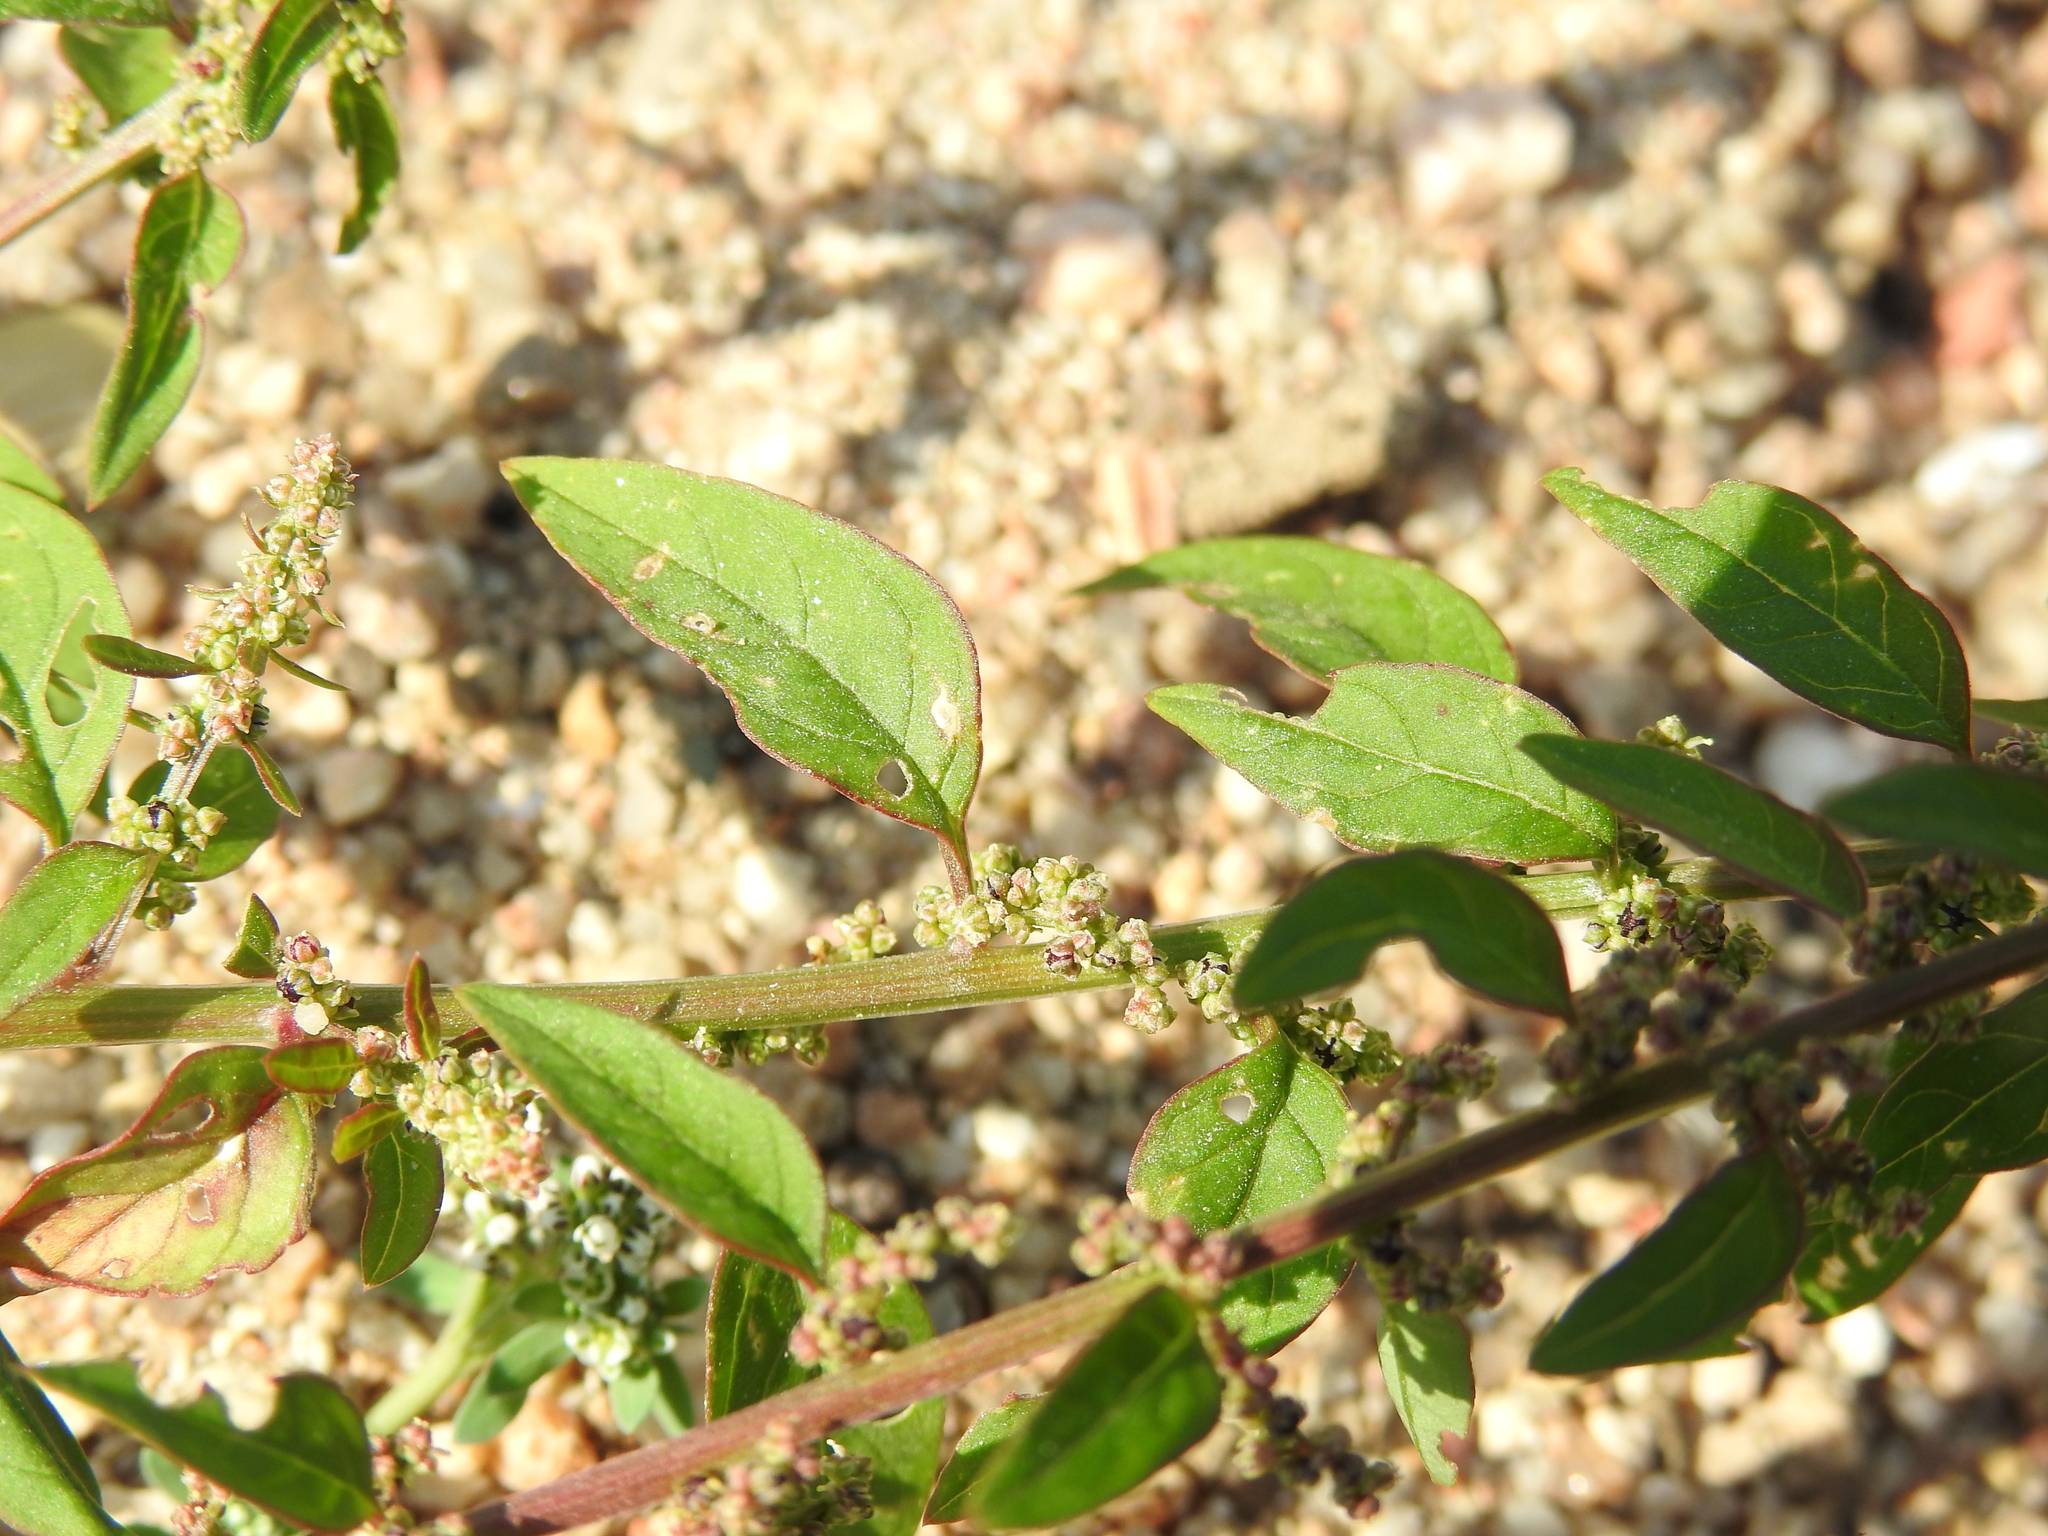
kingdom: Plantae
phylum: Tracheophyta
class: Magnoliopsida
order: Caryophyllales
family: Amaranthaceae
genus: Lipandra
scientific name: Lipandra polysperma
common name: Many-seed goosefoot
